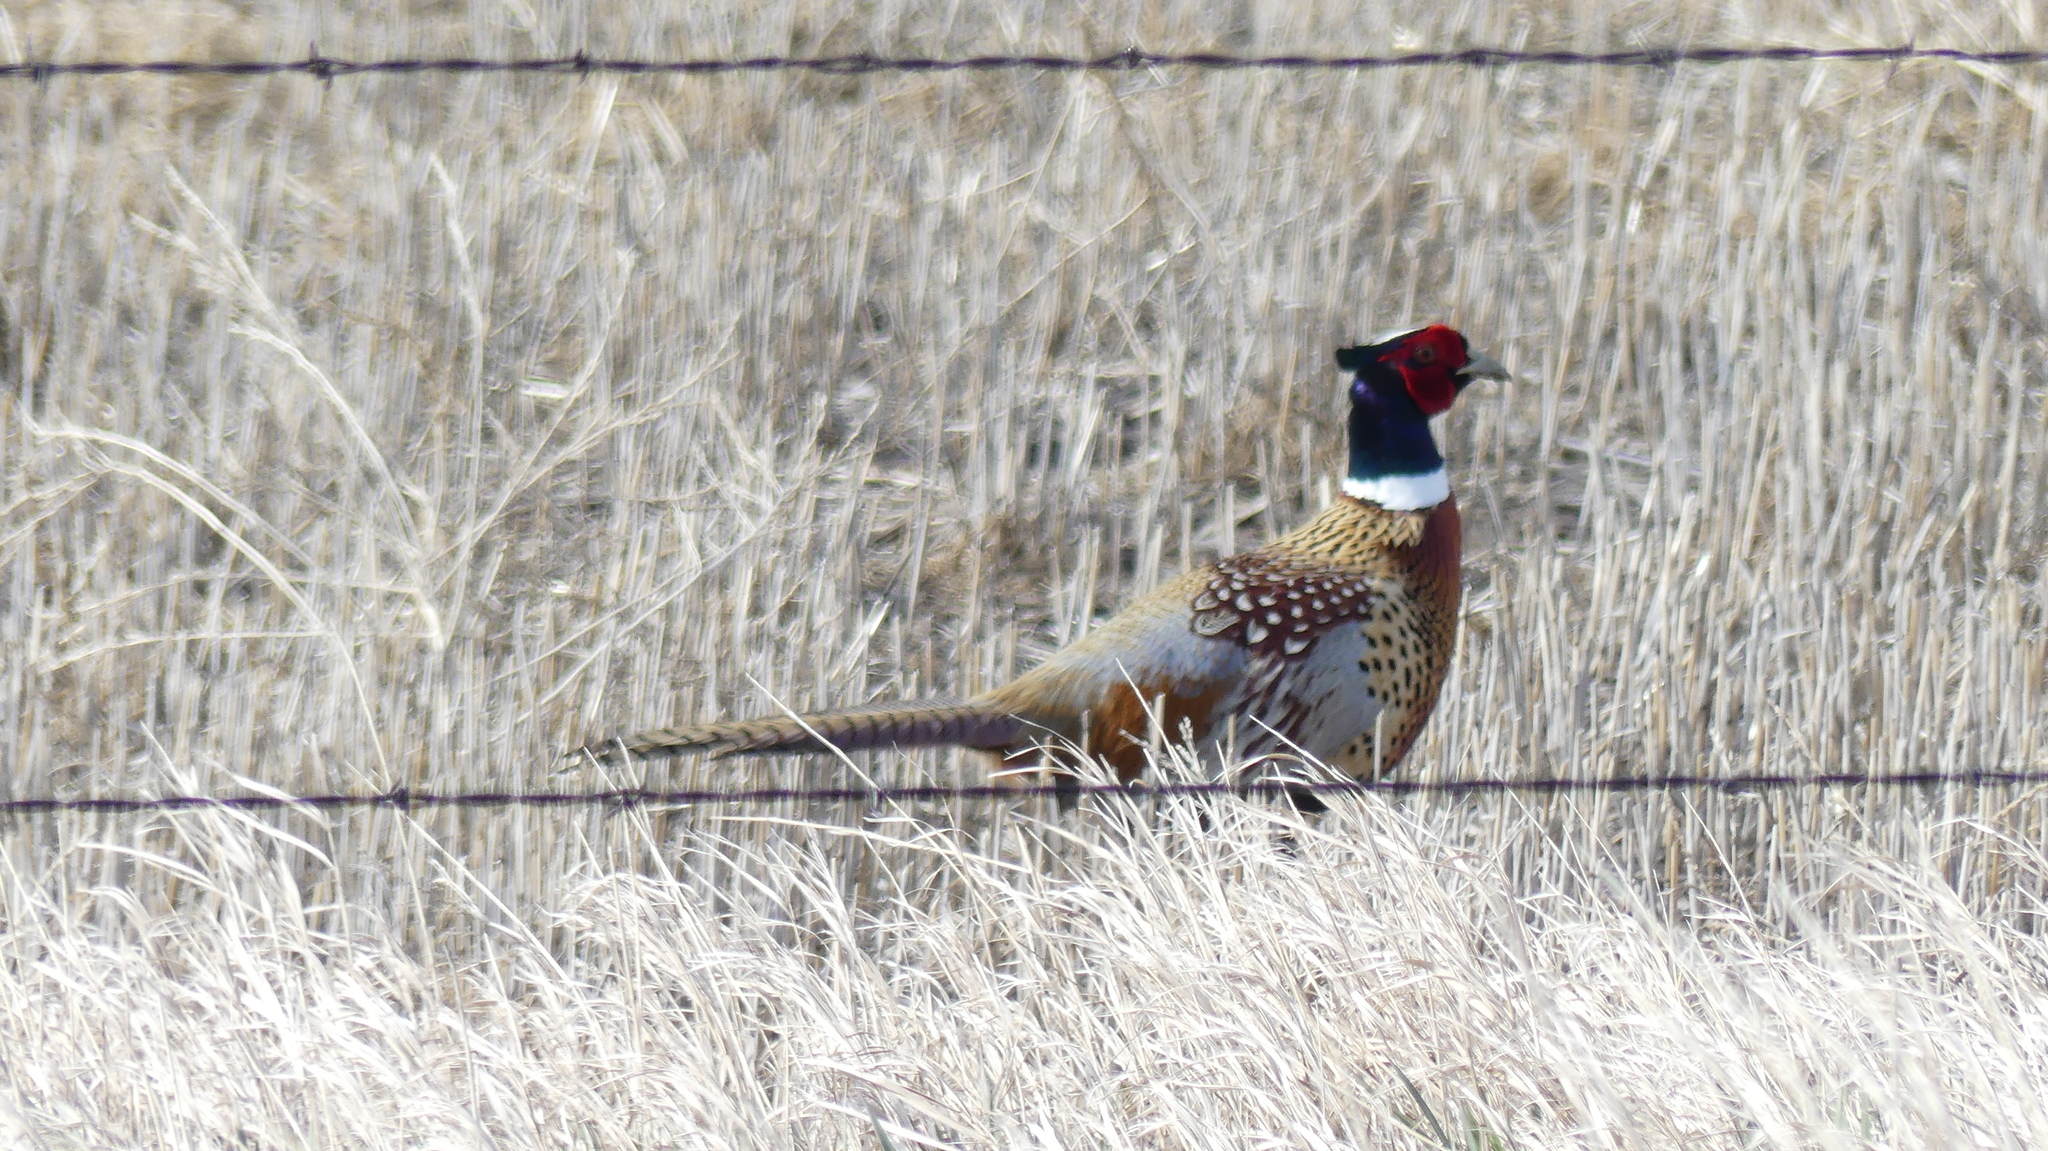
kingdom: Animalia
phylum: Chordata
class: Aves
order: Galliformes
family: Phasianidae
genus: Phasianus
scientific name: Phasianus colchicus
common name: Common pheasant
